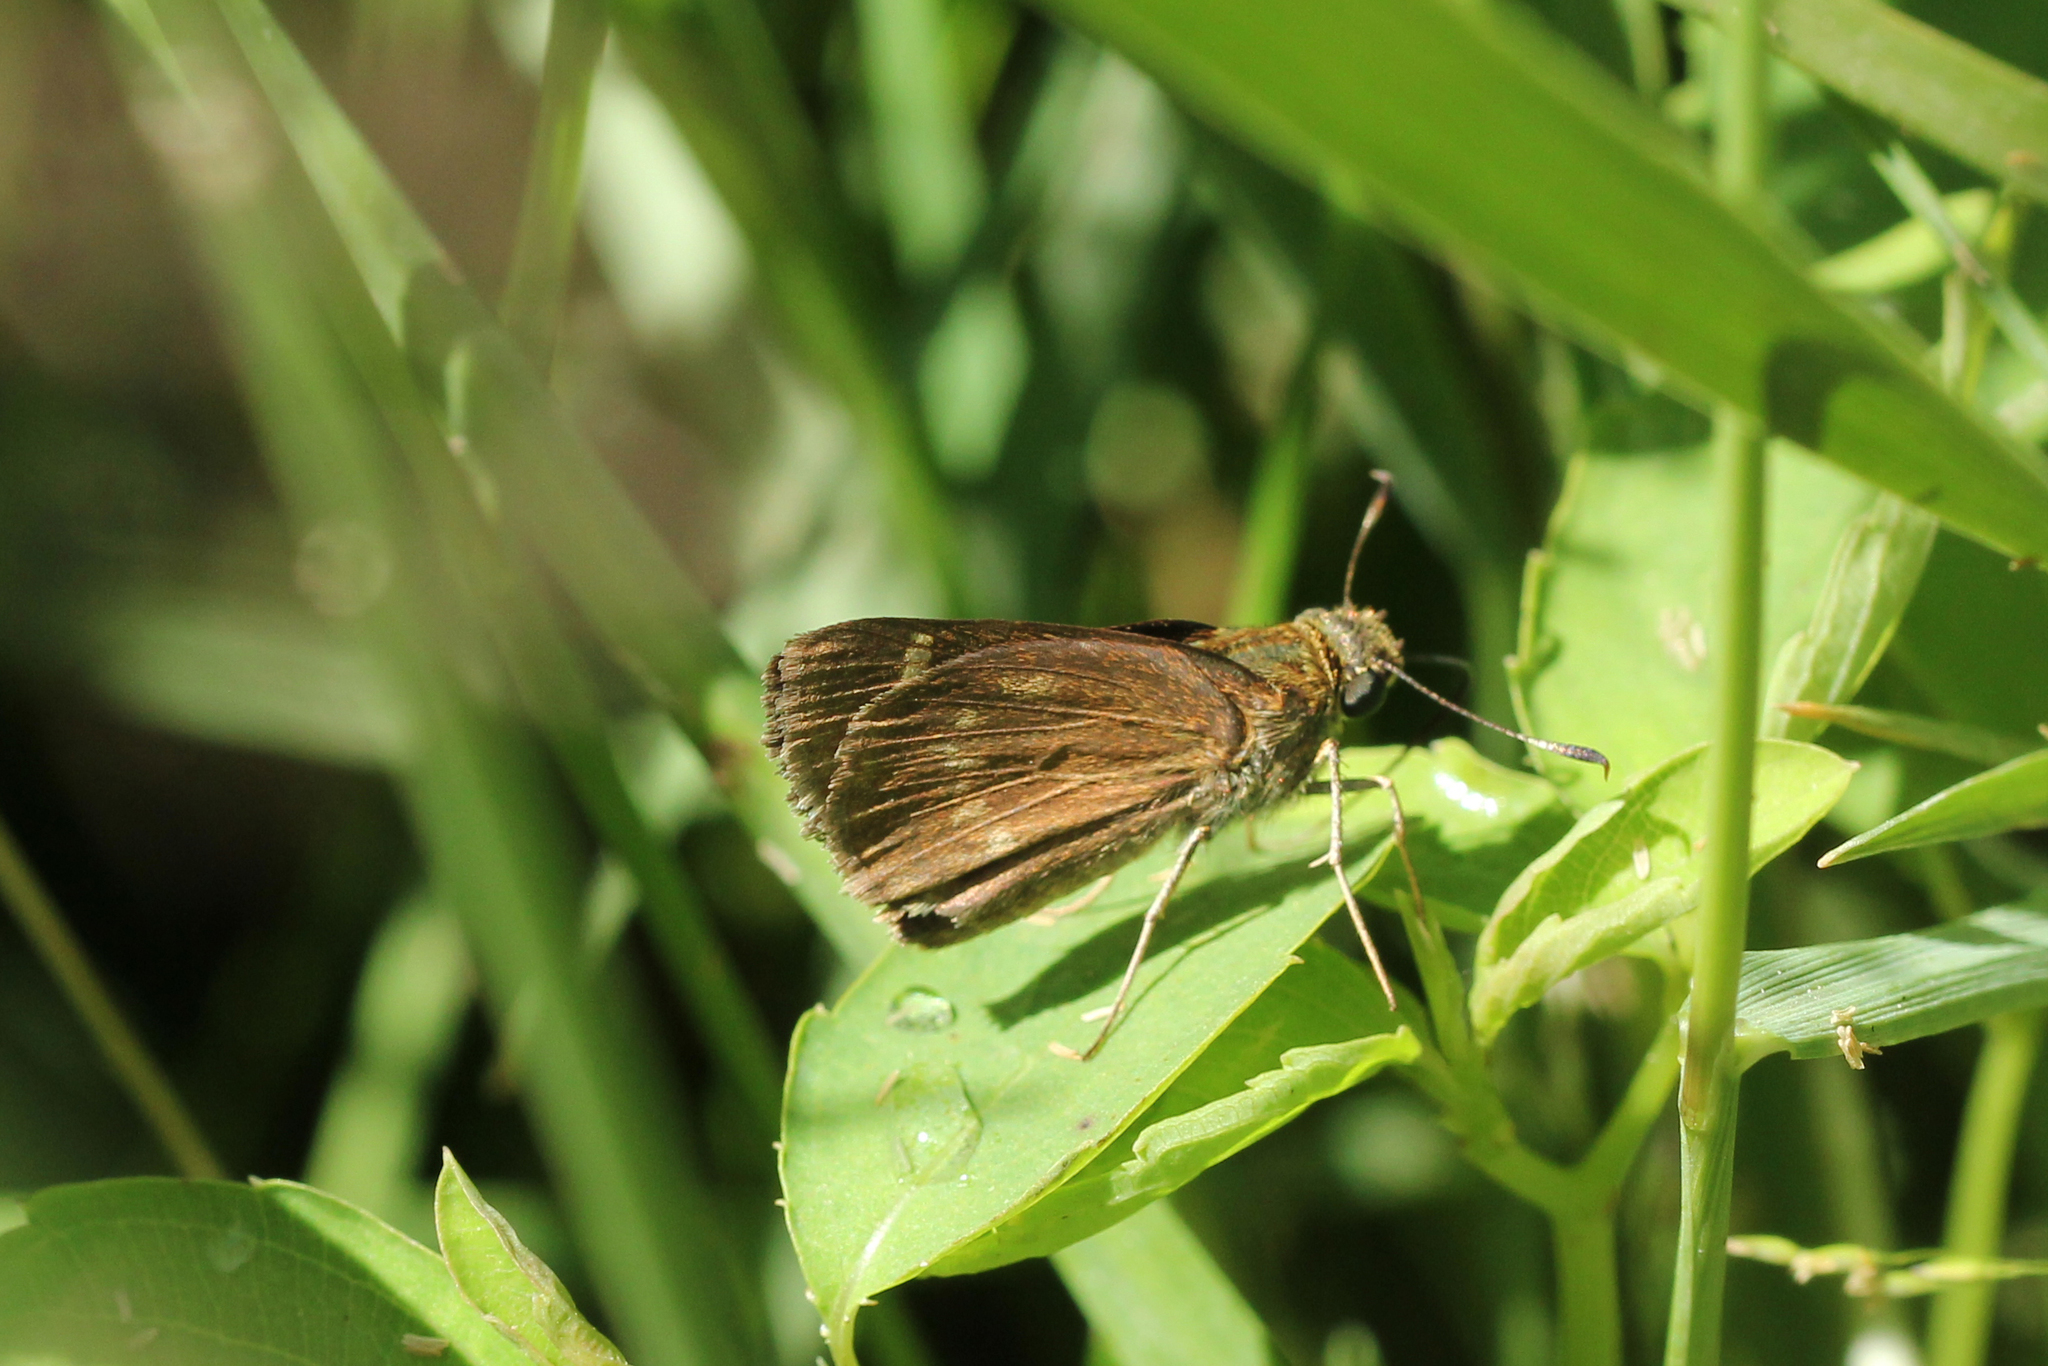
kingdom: Animalia
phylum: Arthropoda
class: Insecta
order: Lepidoptera
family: Hesperiidae
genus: Vernia
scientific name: Vernia verna
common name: Little glassywing
